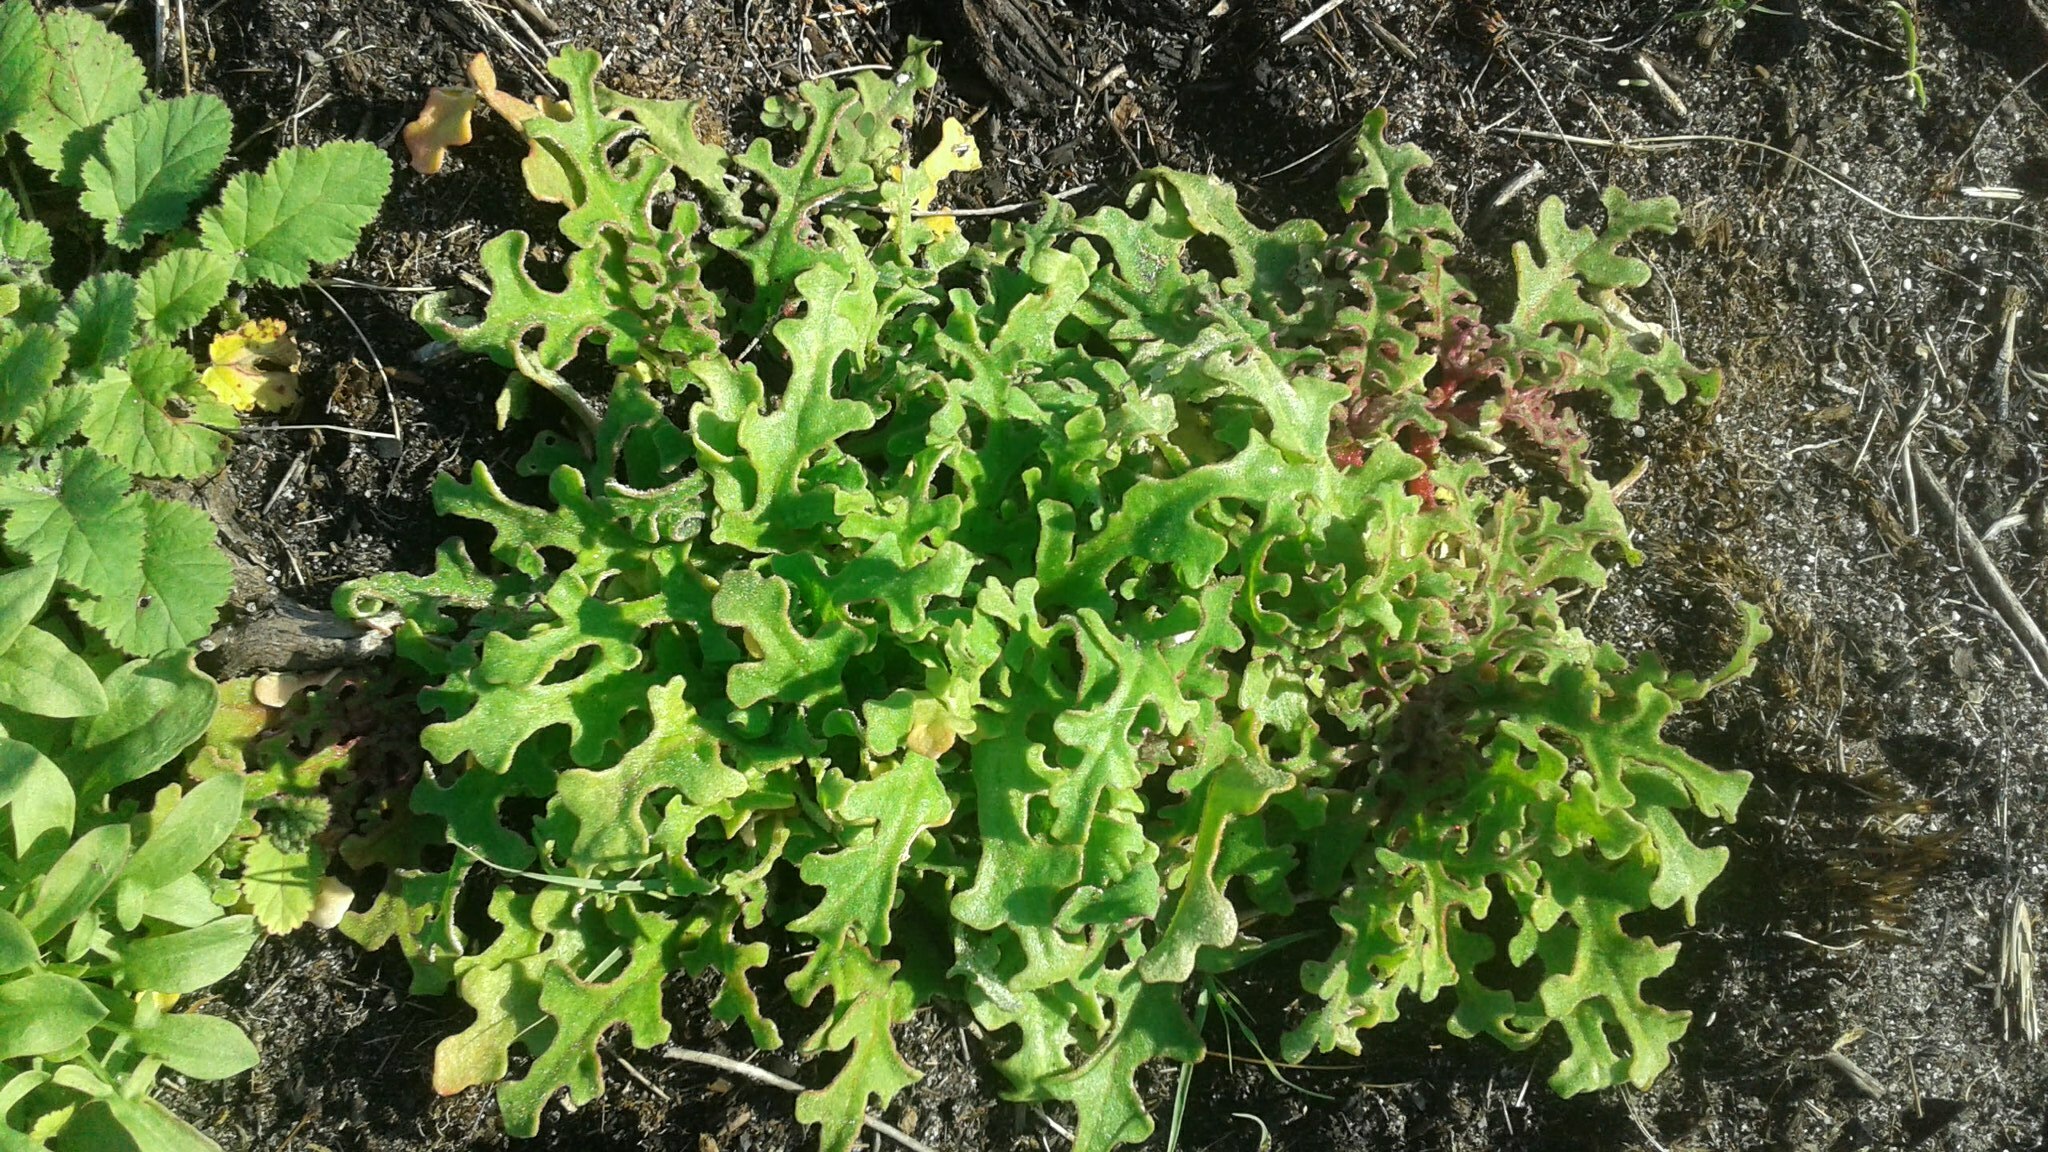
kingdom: Plantae
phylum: Tracheophyta
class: Magnoliopsida
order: Caryophyllales
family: Aizoaceae
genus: Cleretum
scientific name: Cleretum herrei
